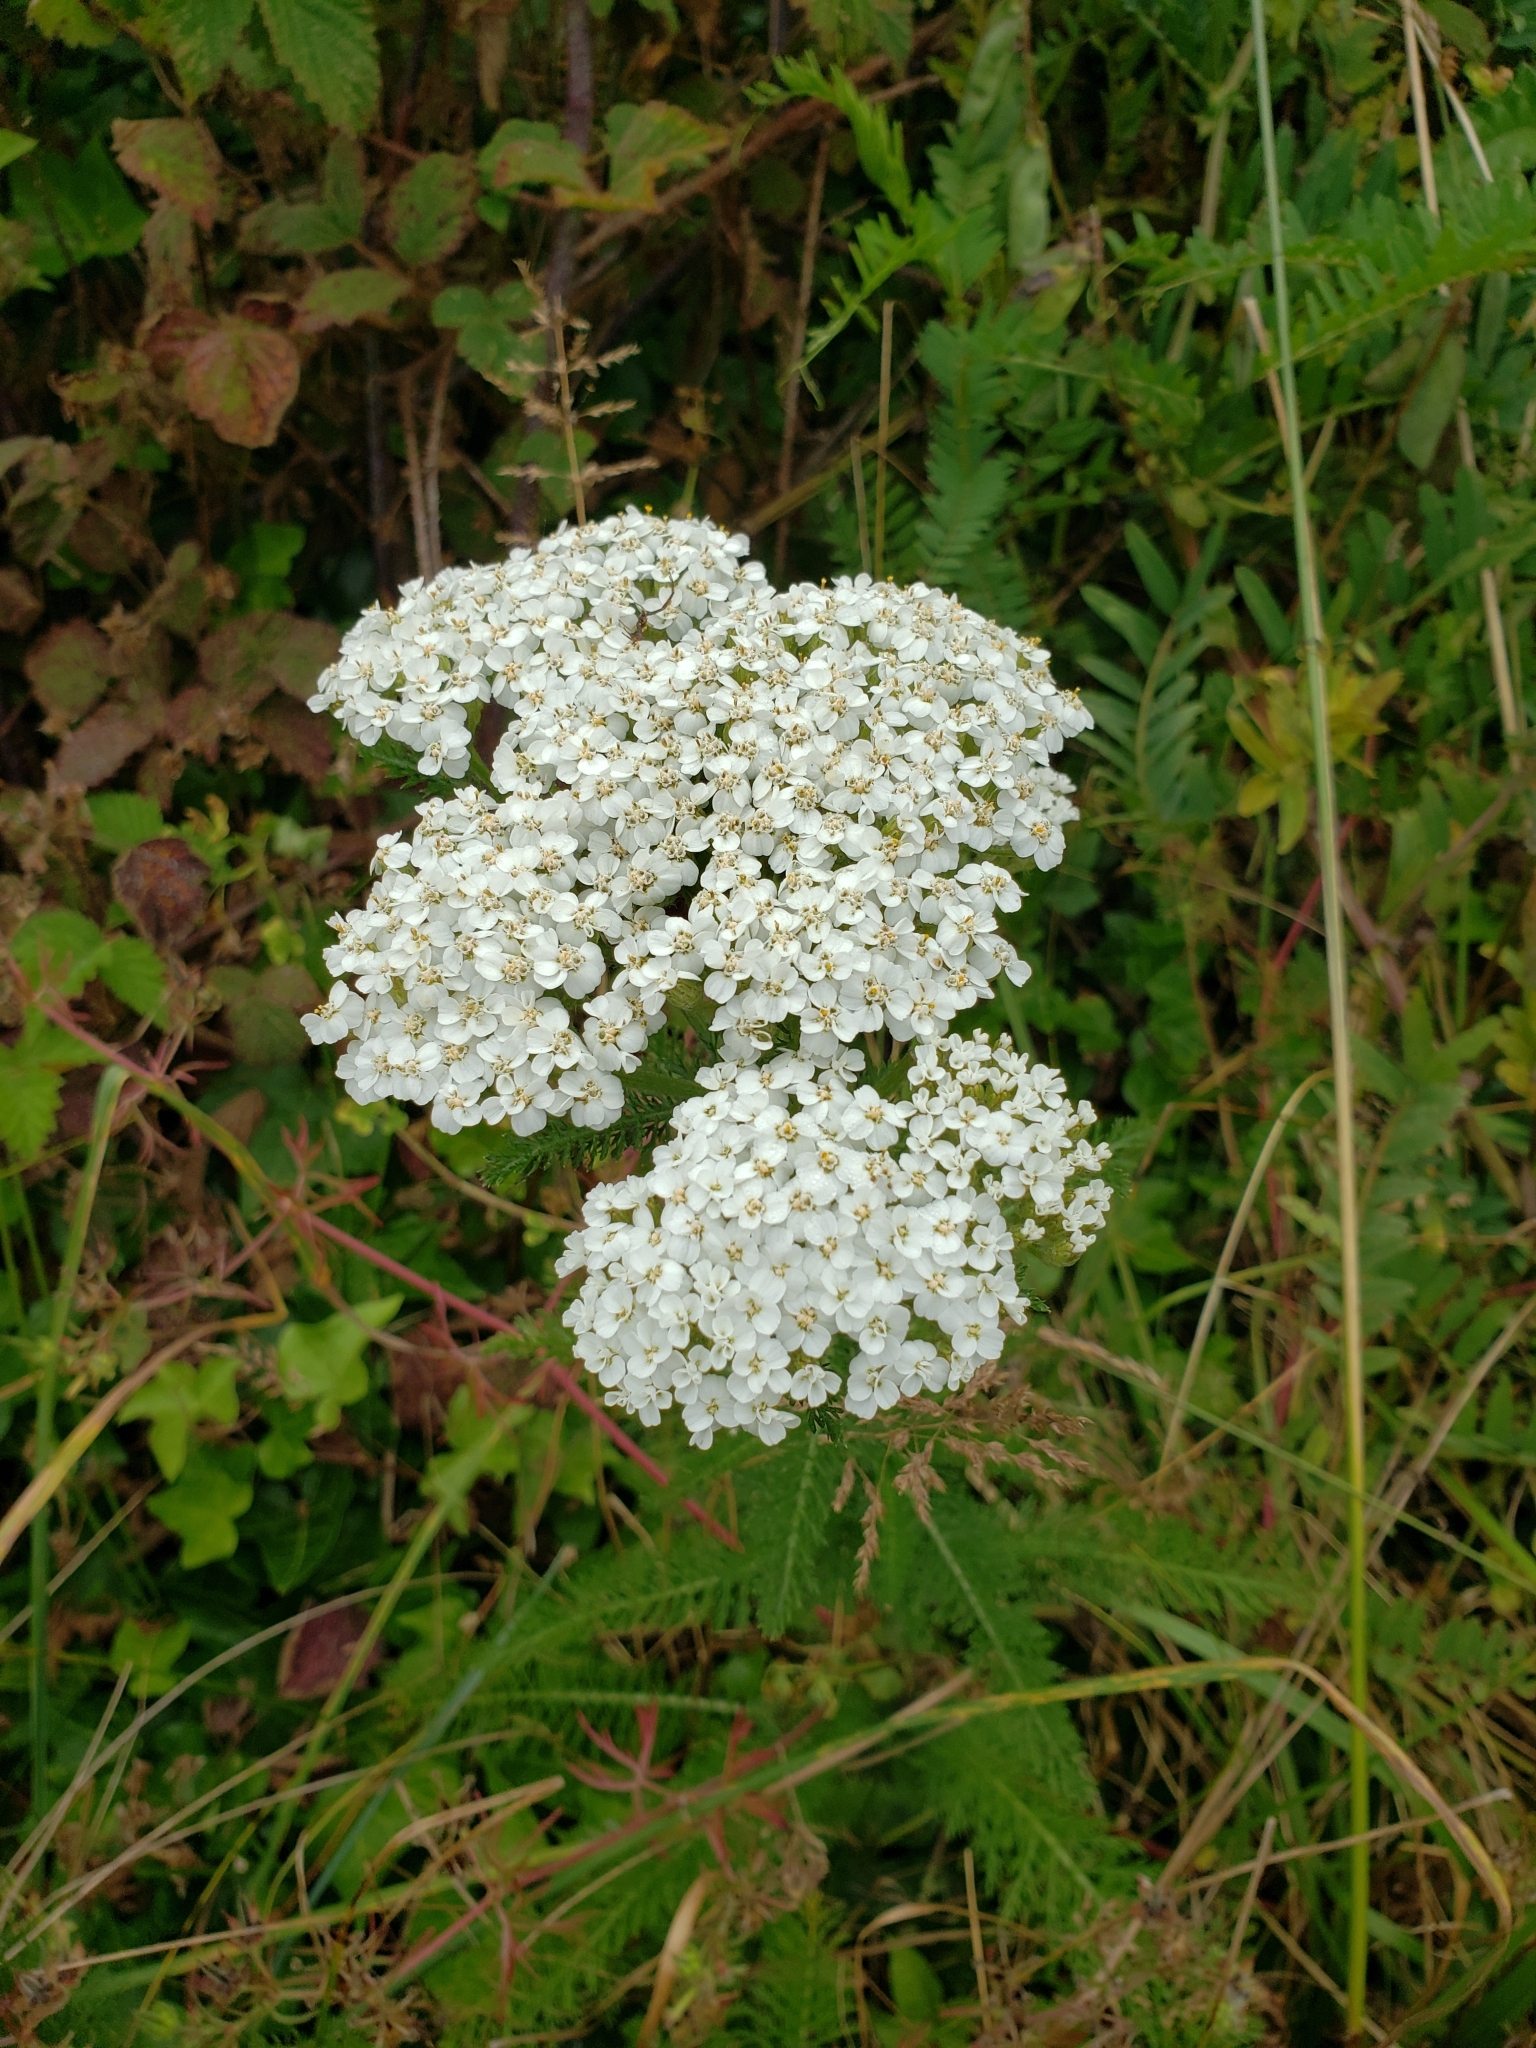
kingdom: Plantae
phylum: Tracheophyta
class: Magnoliopsida
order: Asterales
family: Asteraceae
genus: Achillea
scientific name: Achillea millefolium
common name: Yarrow
